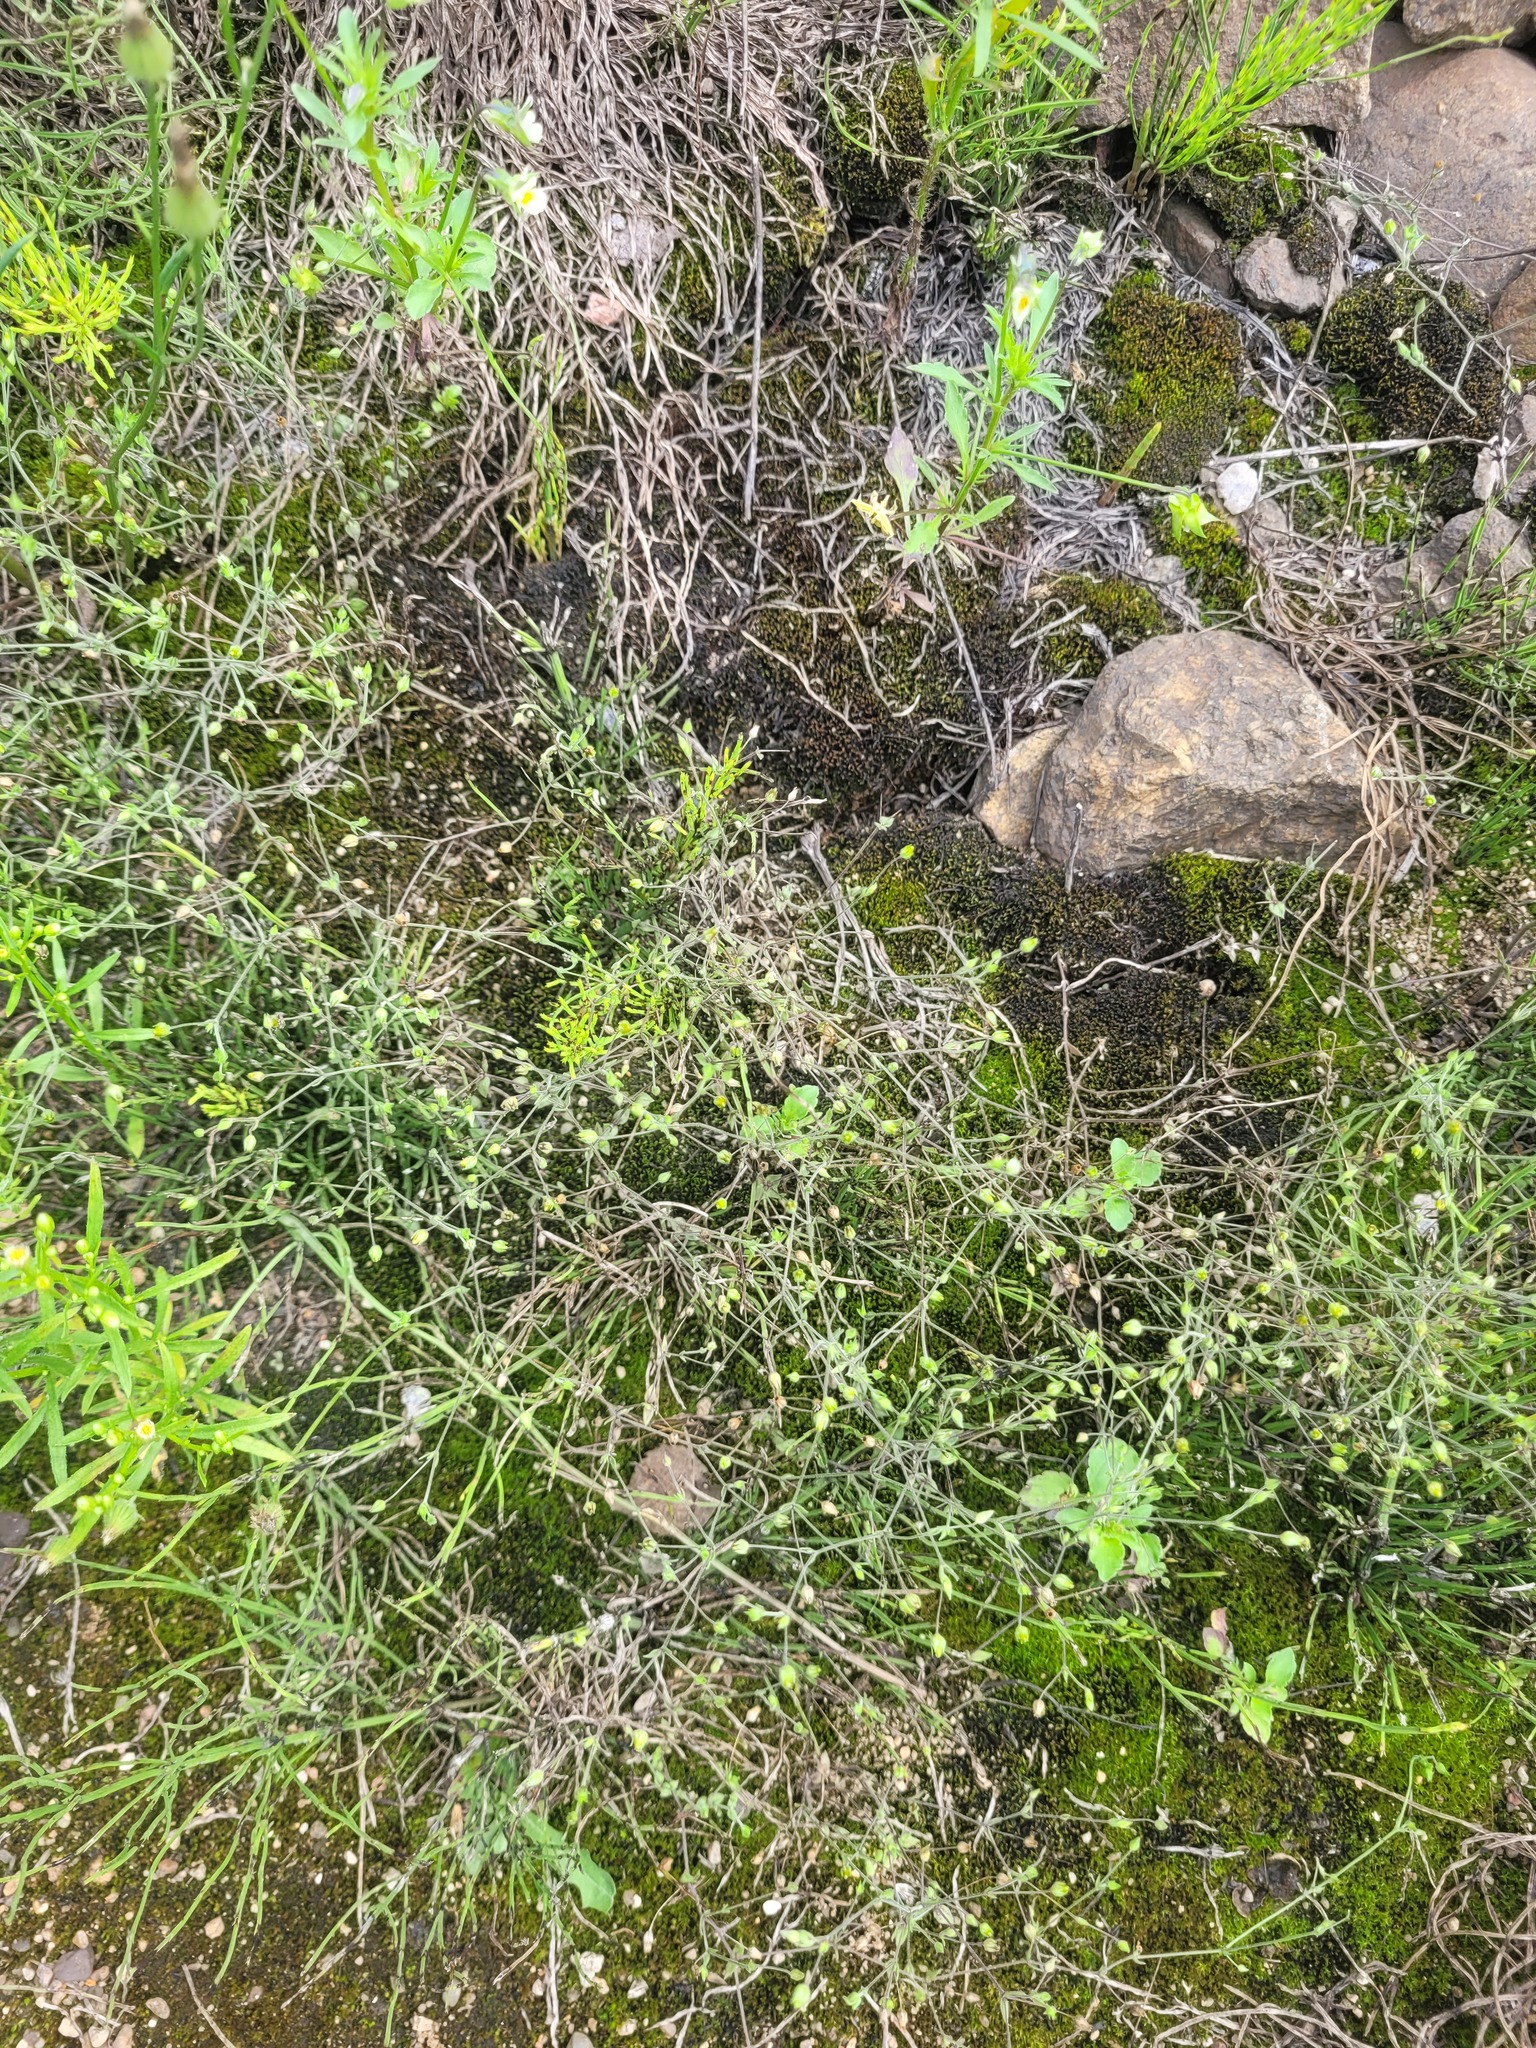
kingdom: Plantae
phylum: Tracheophyta
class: Magnoliopsida
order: Caryophyllales
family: Caryophyllaceae
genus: Arenaria
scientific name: Arenaria serpyllifolia
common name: Thyme-leaved sandwort
